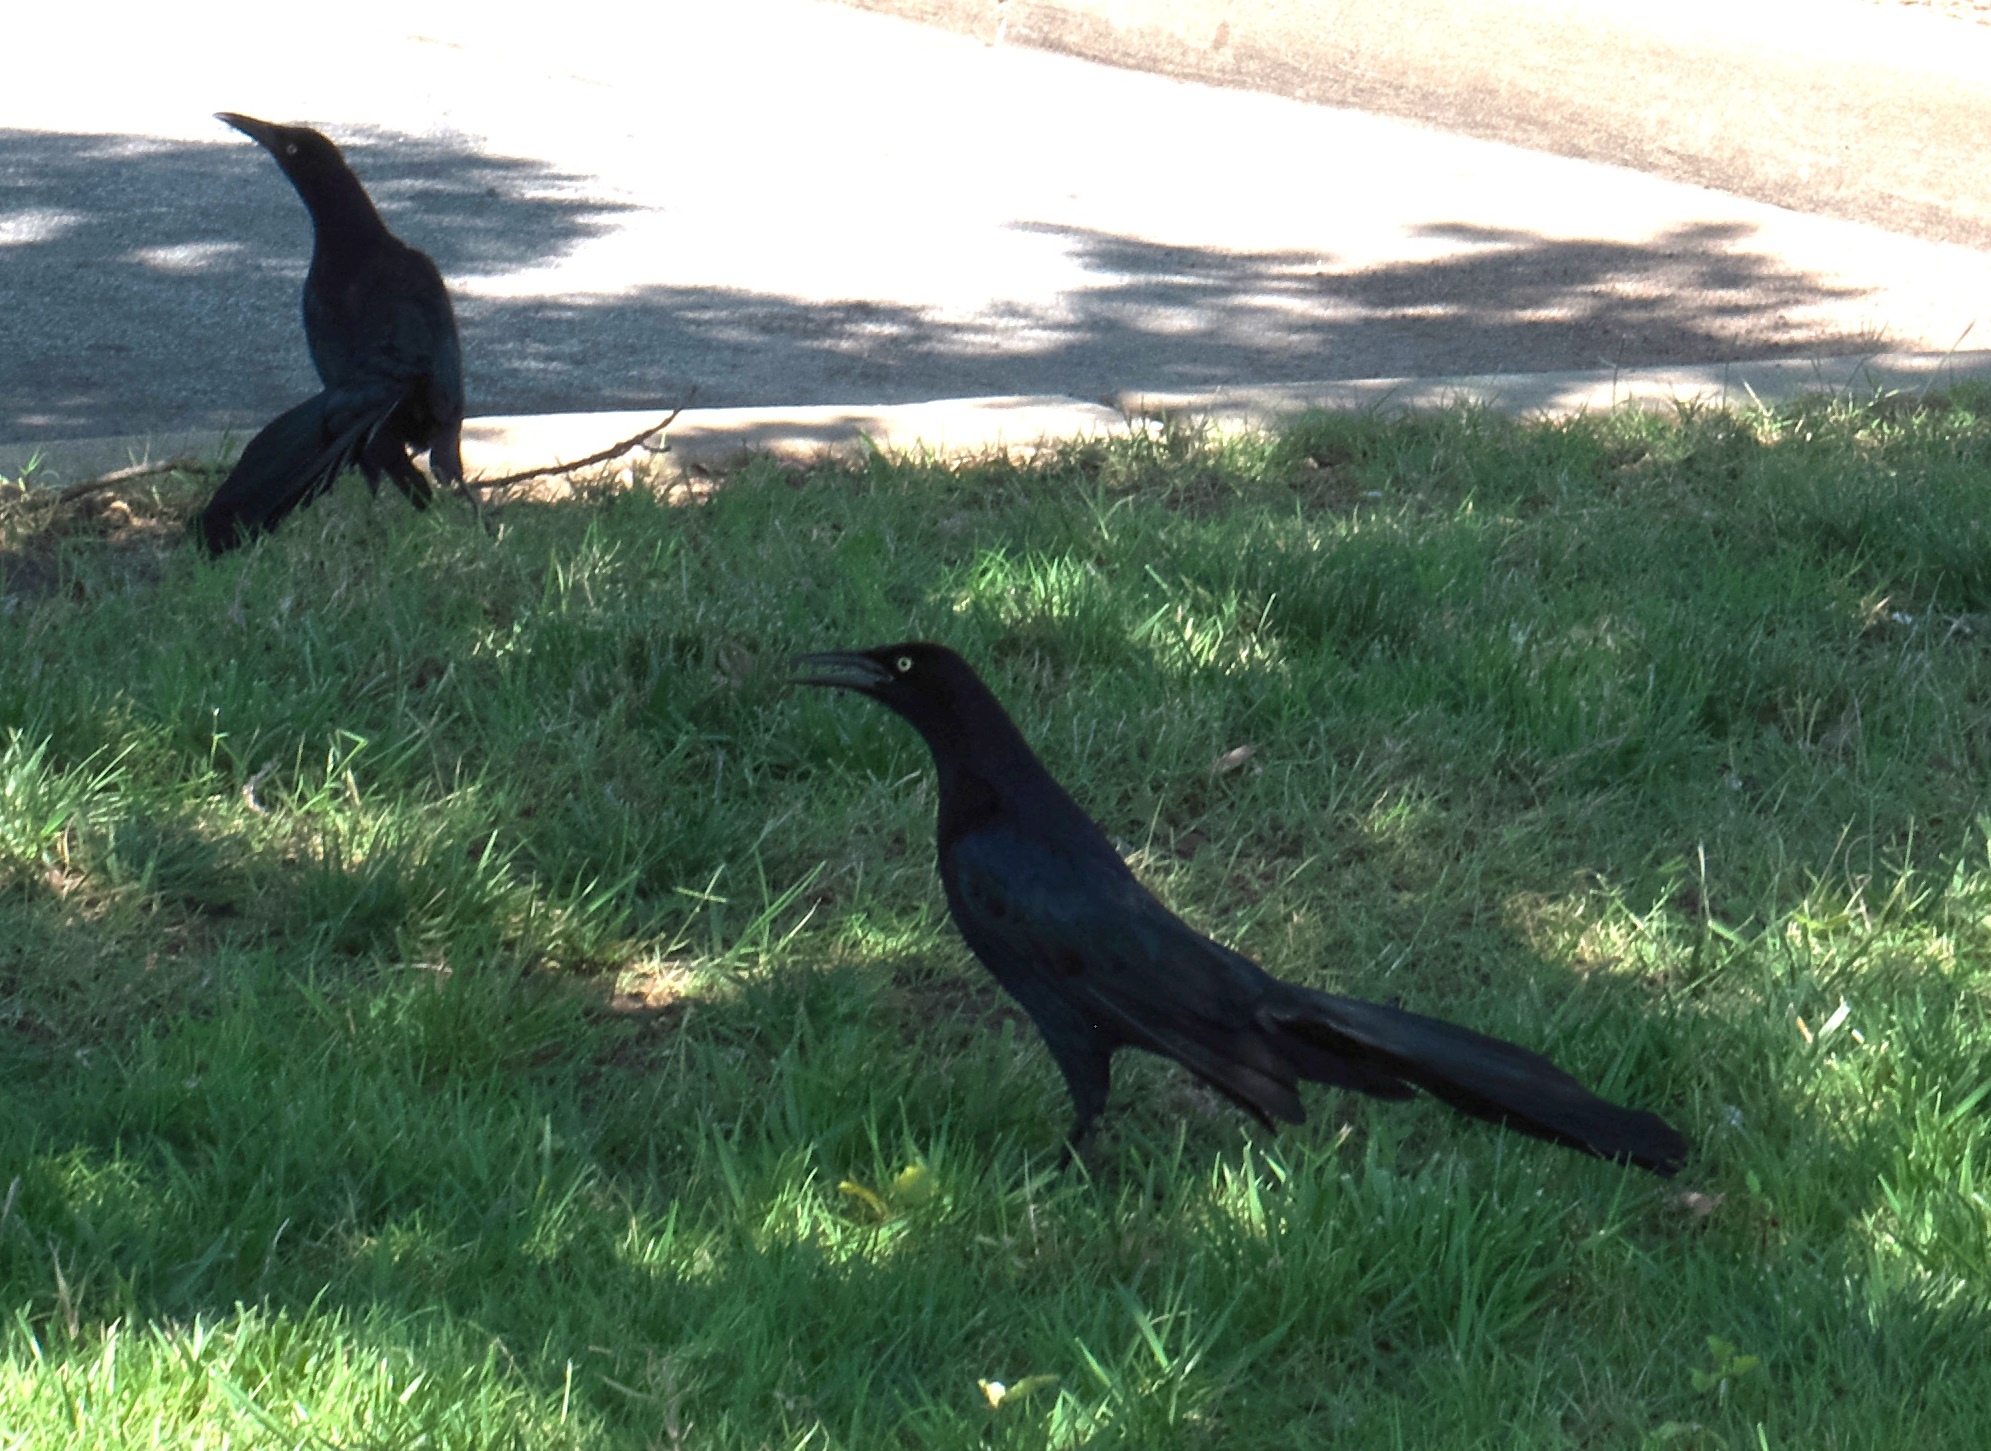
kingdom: Animalia
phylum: Chordata
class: Aves
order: Passeriformes
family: Icteridae
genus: Quiscalus
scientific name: Quiscalus mexicanus
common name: Great-tailed grackle
